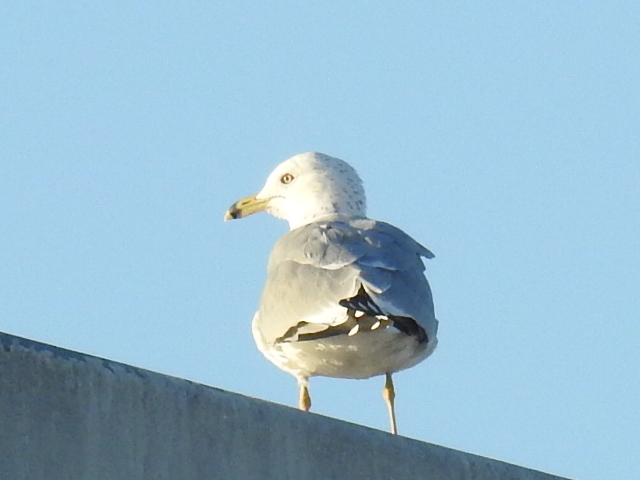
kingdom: Animalia
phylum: Chordata
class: Aves
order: Charadriiformes
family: Laridae
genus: Larus
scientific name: Larus delawarensis
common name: Ring-billed gull
